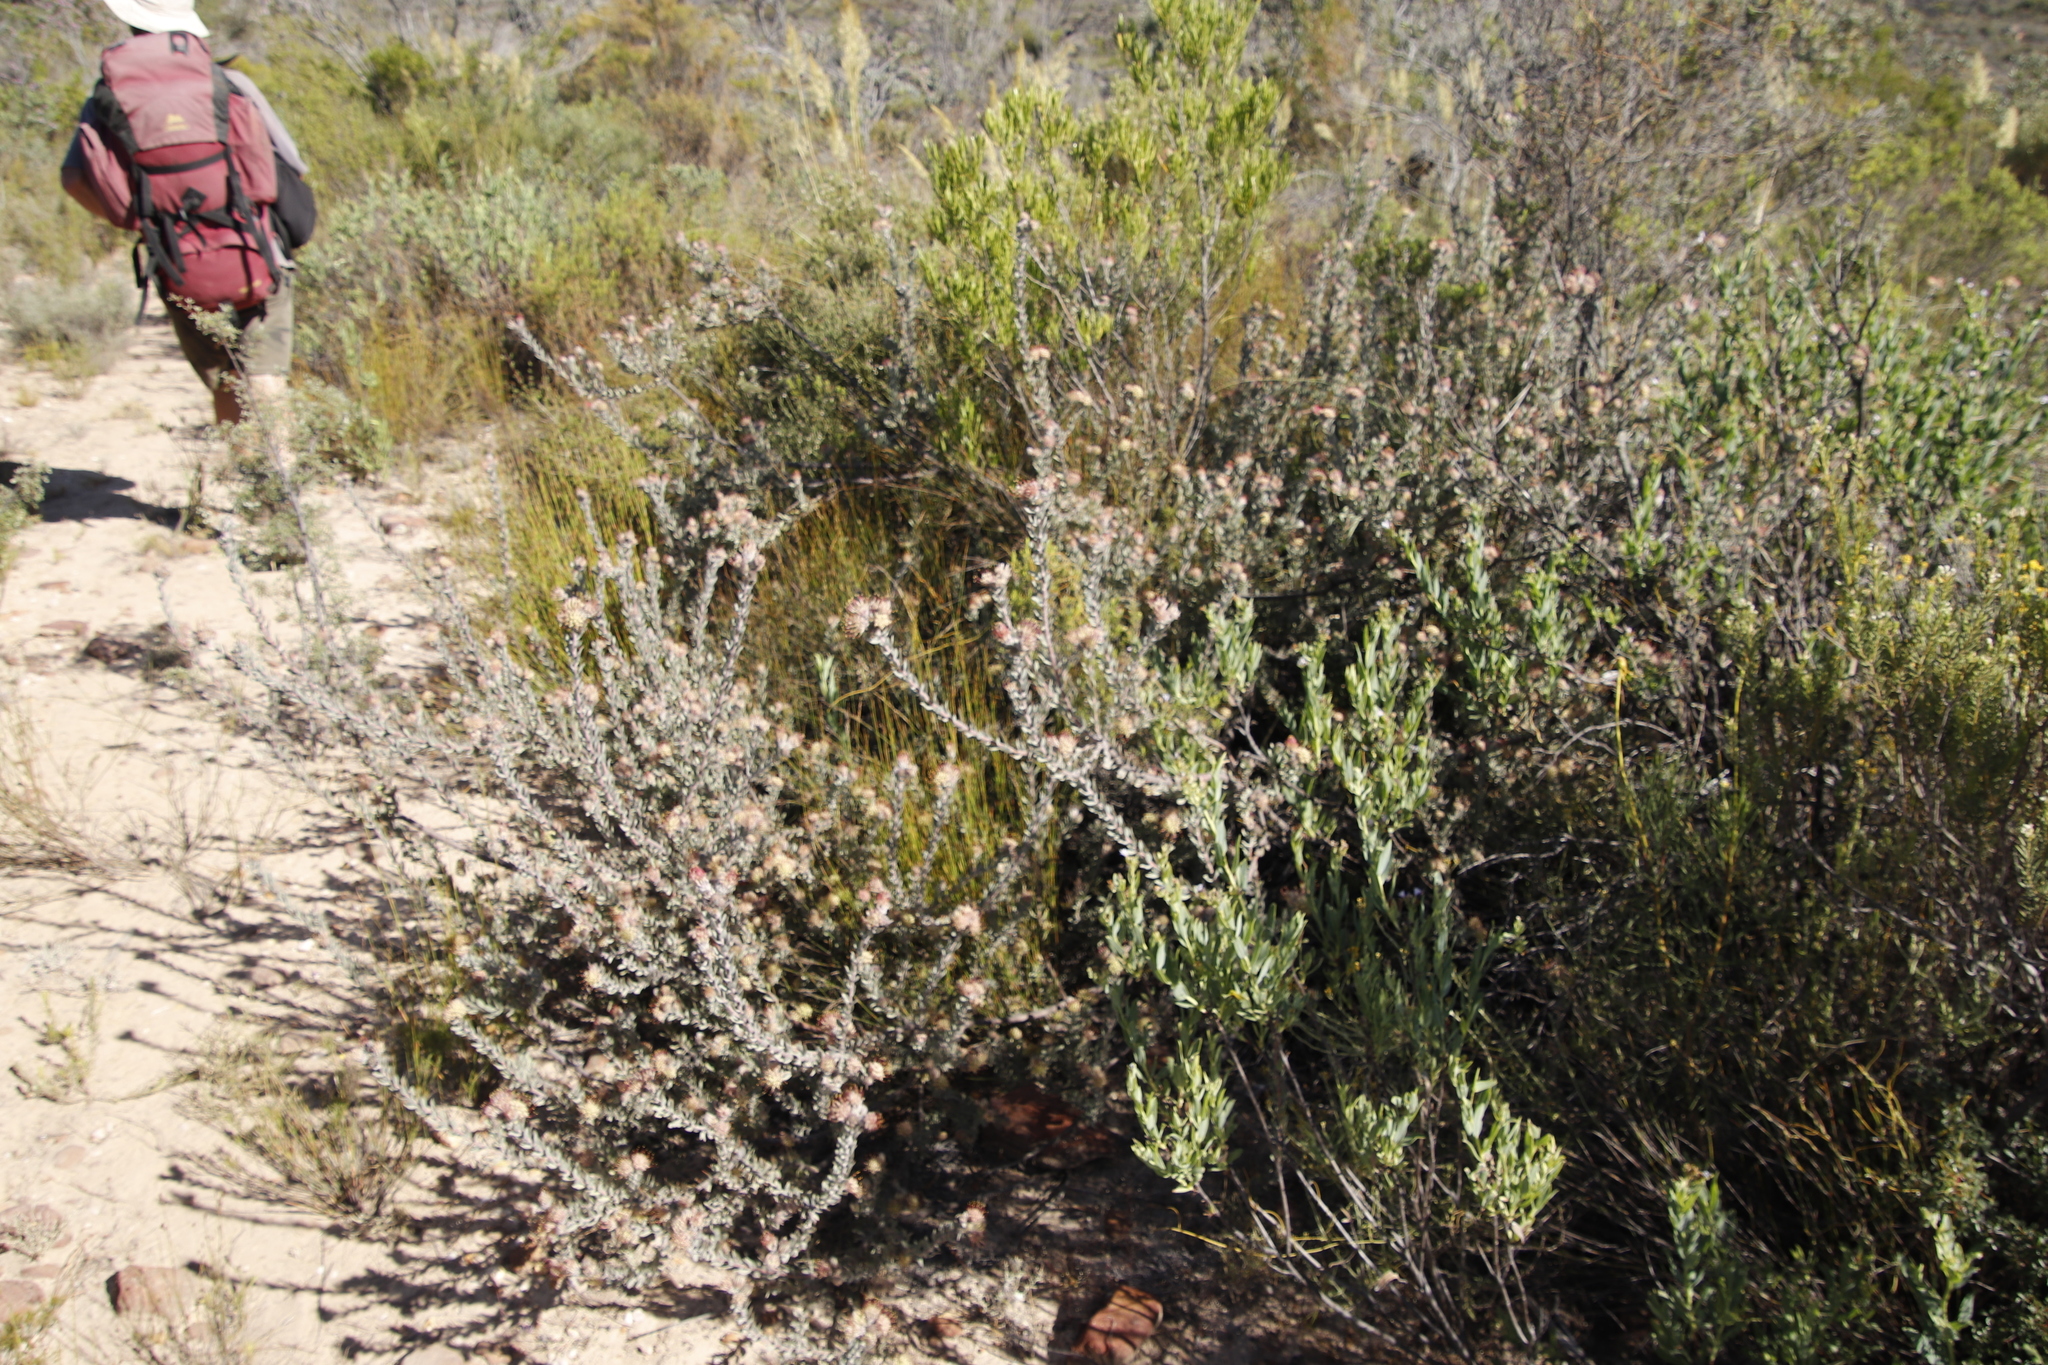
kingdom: Plantae
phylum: Tracheophyta
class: Magnoliopsida
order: Proteales
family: Proteaceae
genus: Leucospermum
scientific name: Leucospermum calligerum
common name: Arid pincushion
